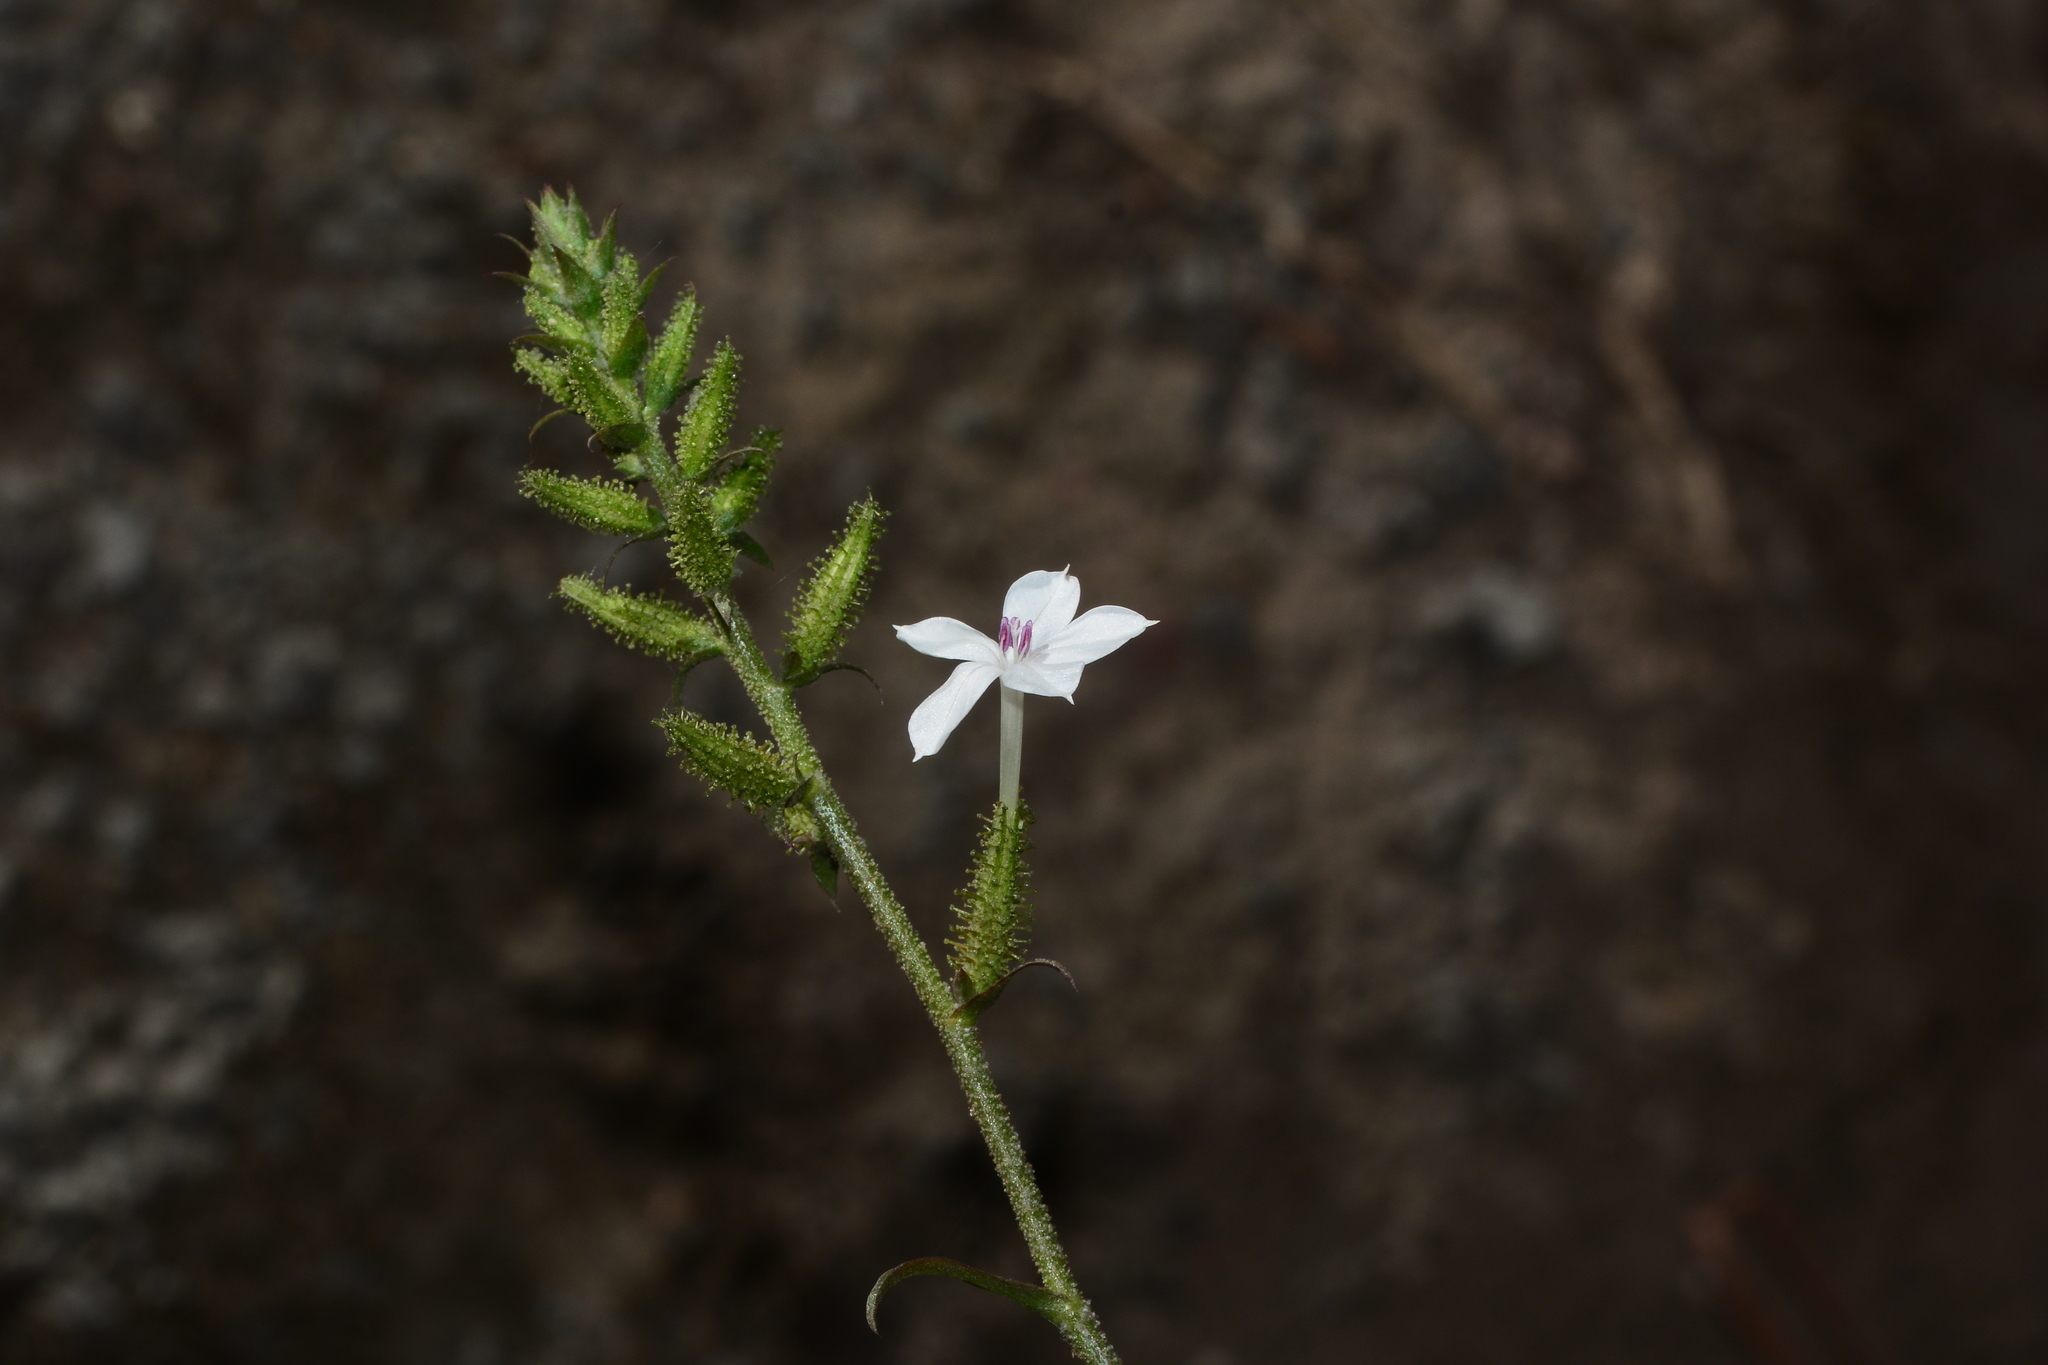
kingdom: Plantae
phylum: Tracheophyta
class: Magnoliopsida
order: Caryophyllales
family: Plumbaginaceae
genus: Plumbago
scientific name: Plumbago zeylanica
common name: Doctorbush
